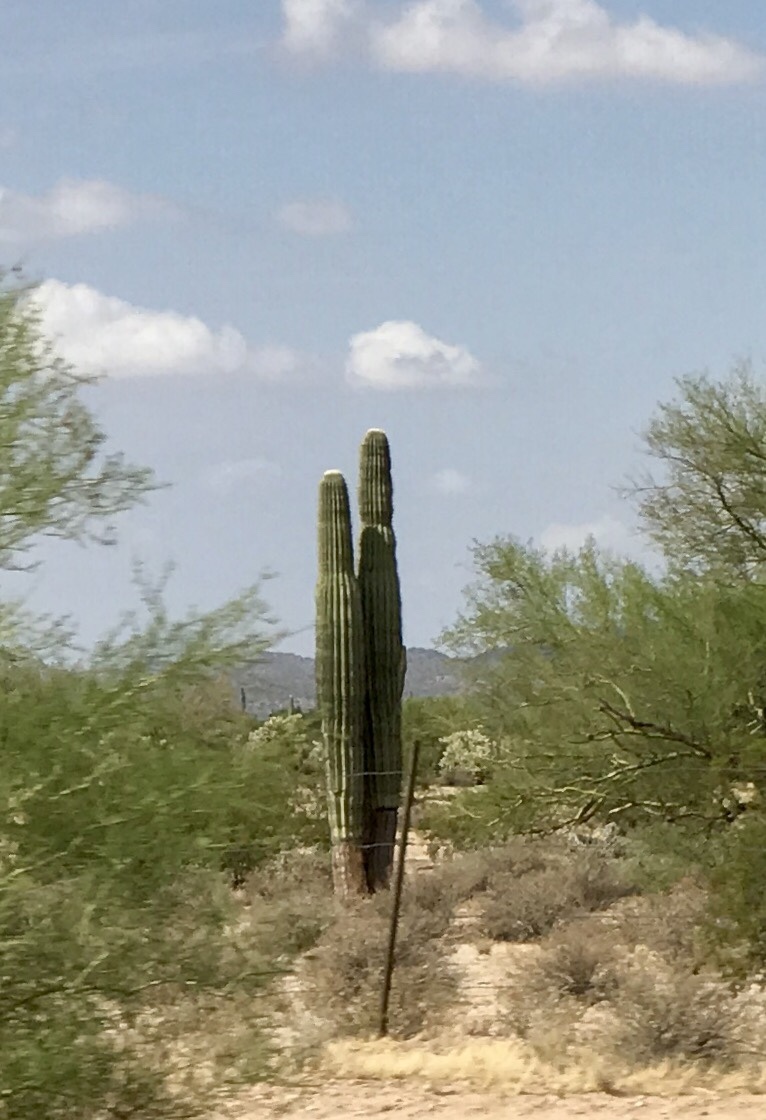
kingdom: Plantae
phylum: Tracheophyta
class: Magnoliopsida
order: Caryophyllales
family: Cactaceae
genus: Carnegiea
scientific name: Carnegiea gigantea
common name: Saguaro
